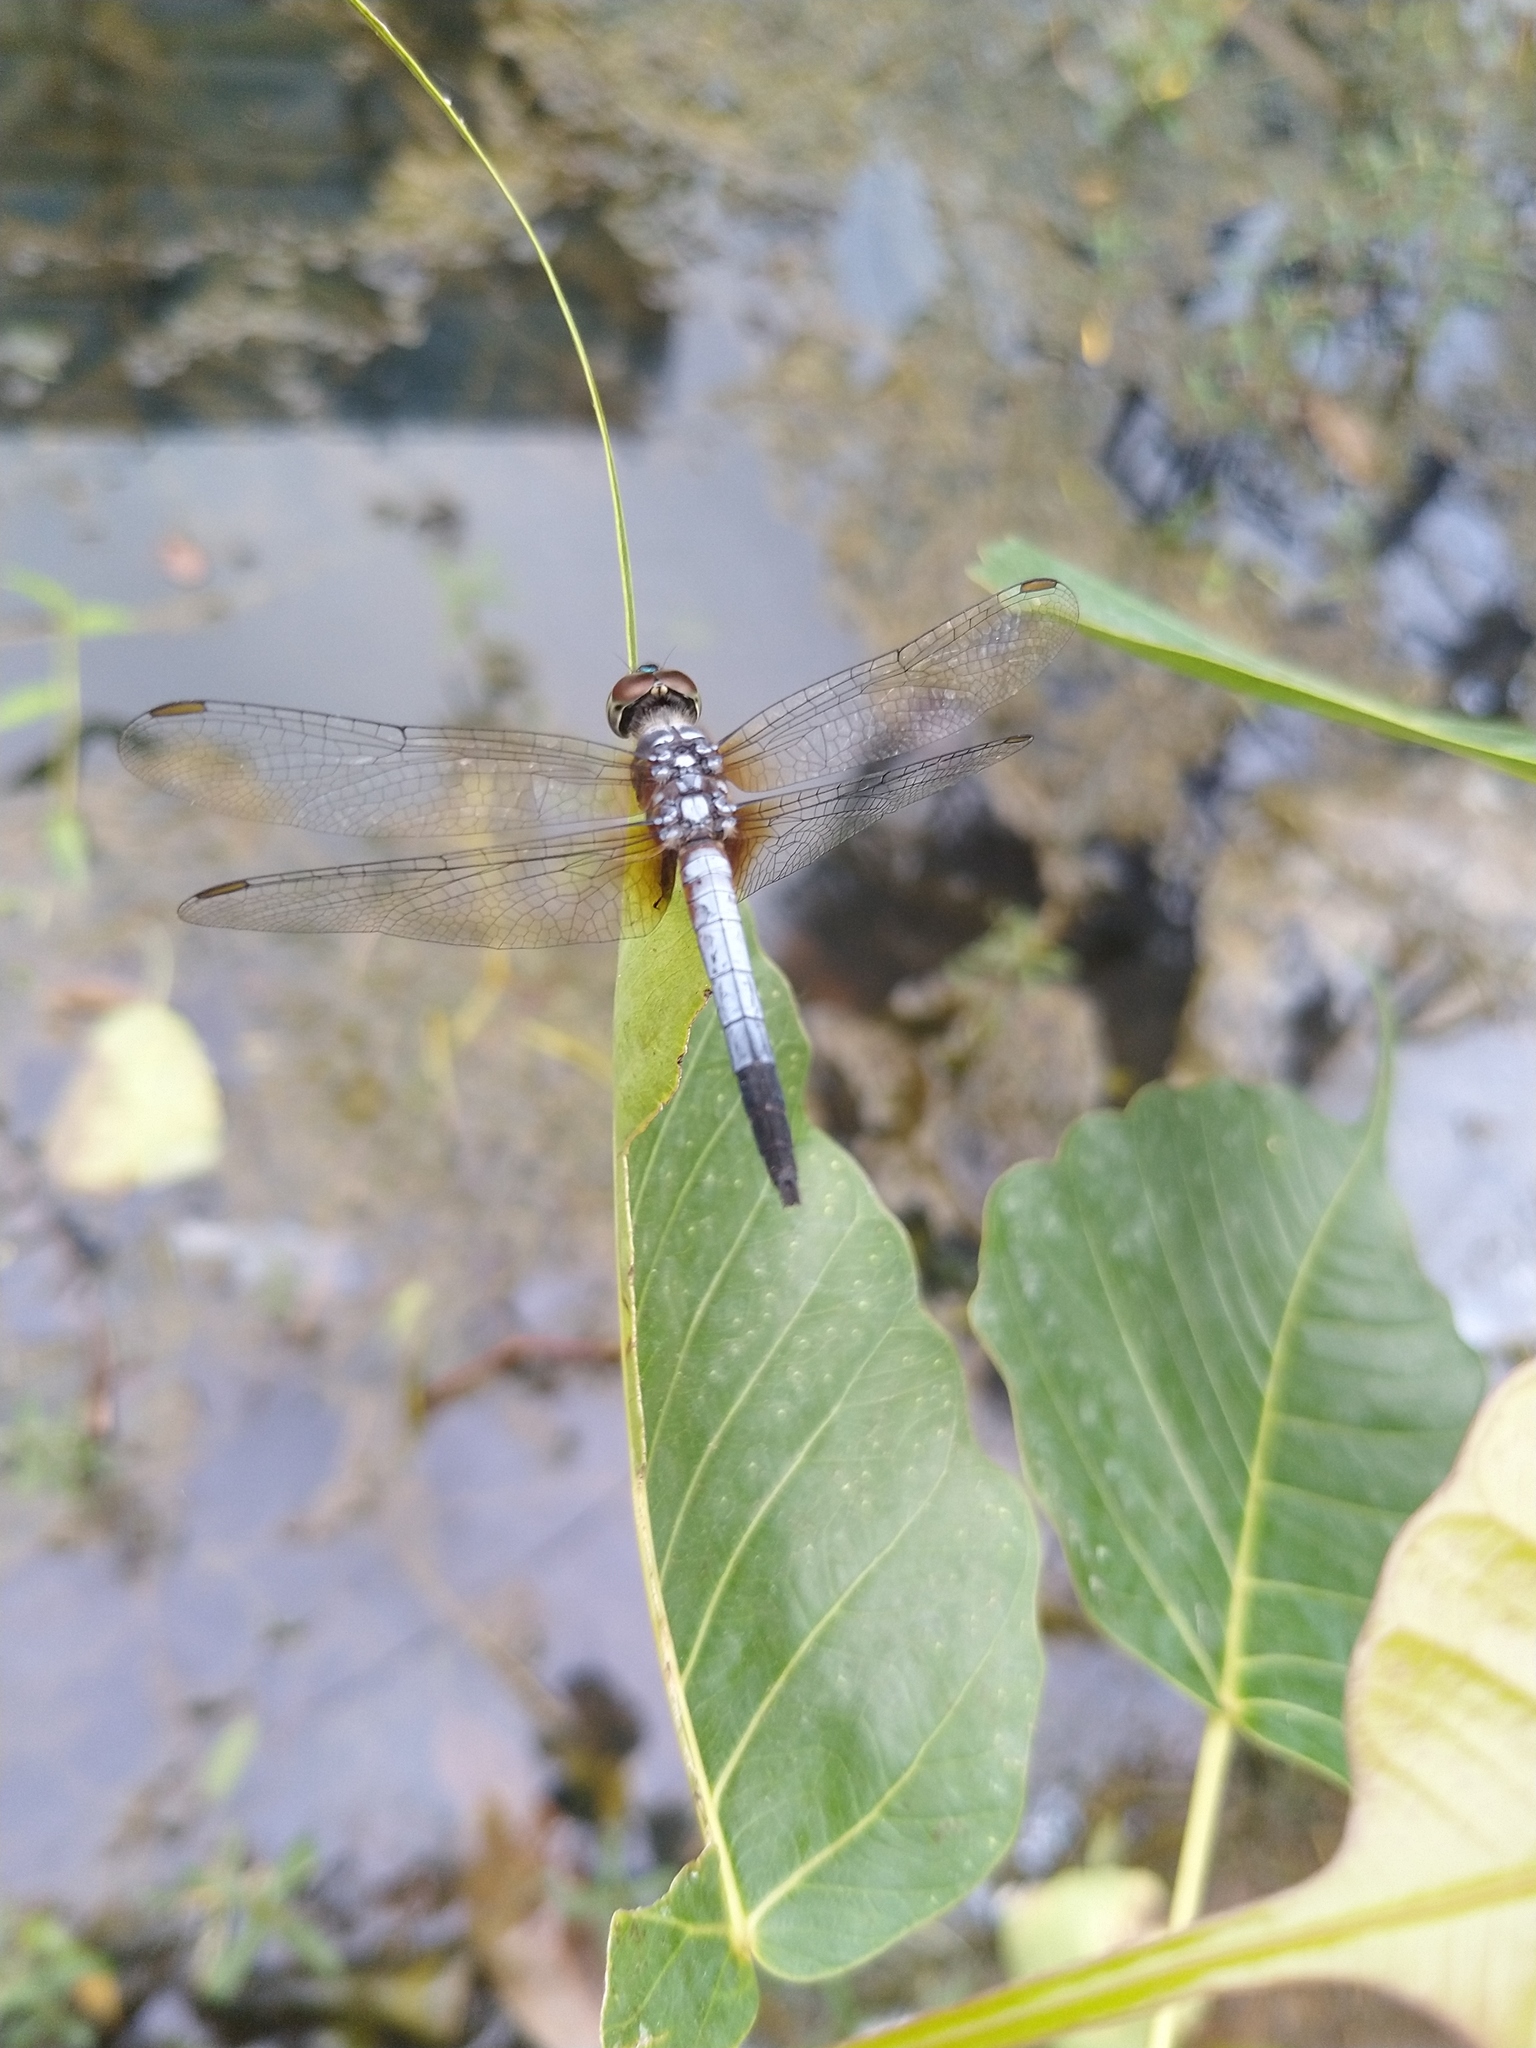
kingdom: Animalia
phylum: Arthropoda
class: Insecta
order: Odonata
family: Libellulidae
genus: Brachydiplax
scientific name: Brachydiplax chalybea
